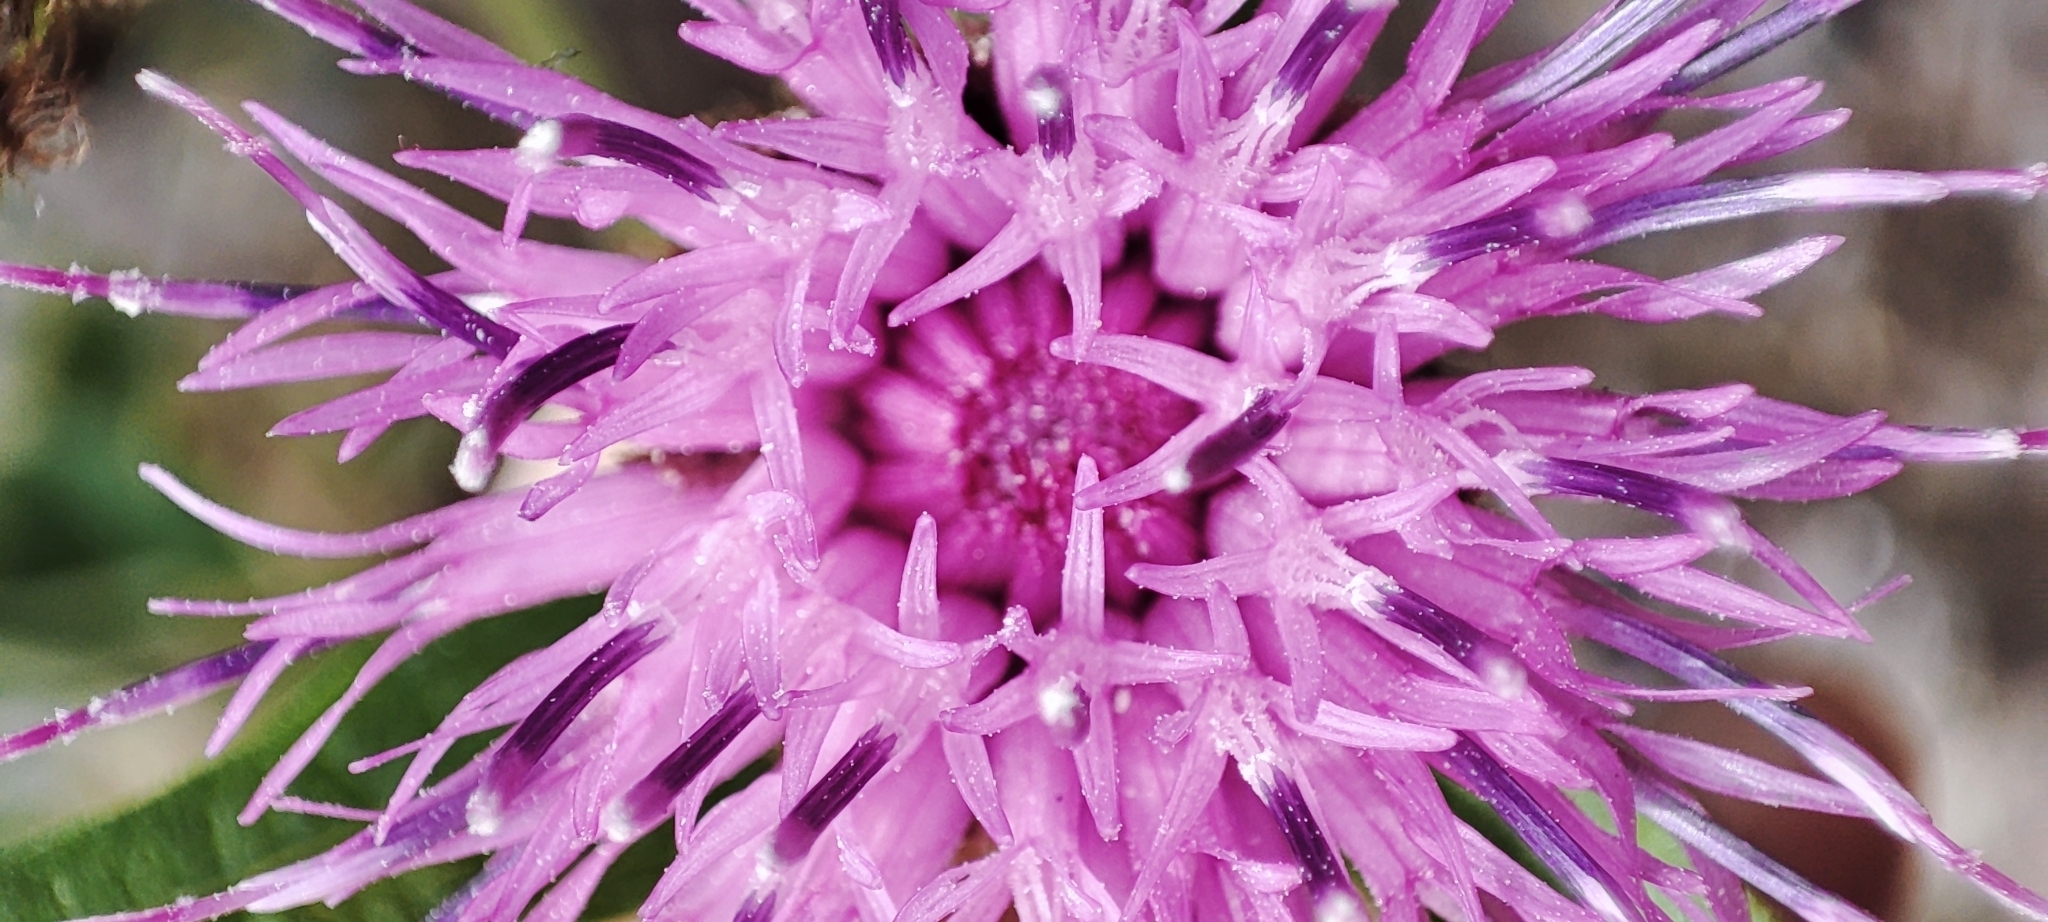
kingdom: Plantae
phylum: Tracheophyta
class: Magnoliopsida
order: Asterales
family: Asteraceae
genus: Centaurea
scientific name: Centaurea nigra
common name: Lesser knapweed
